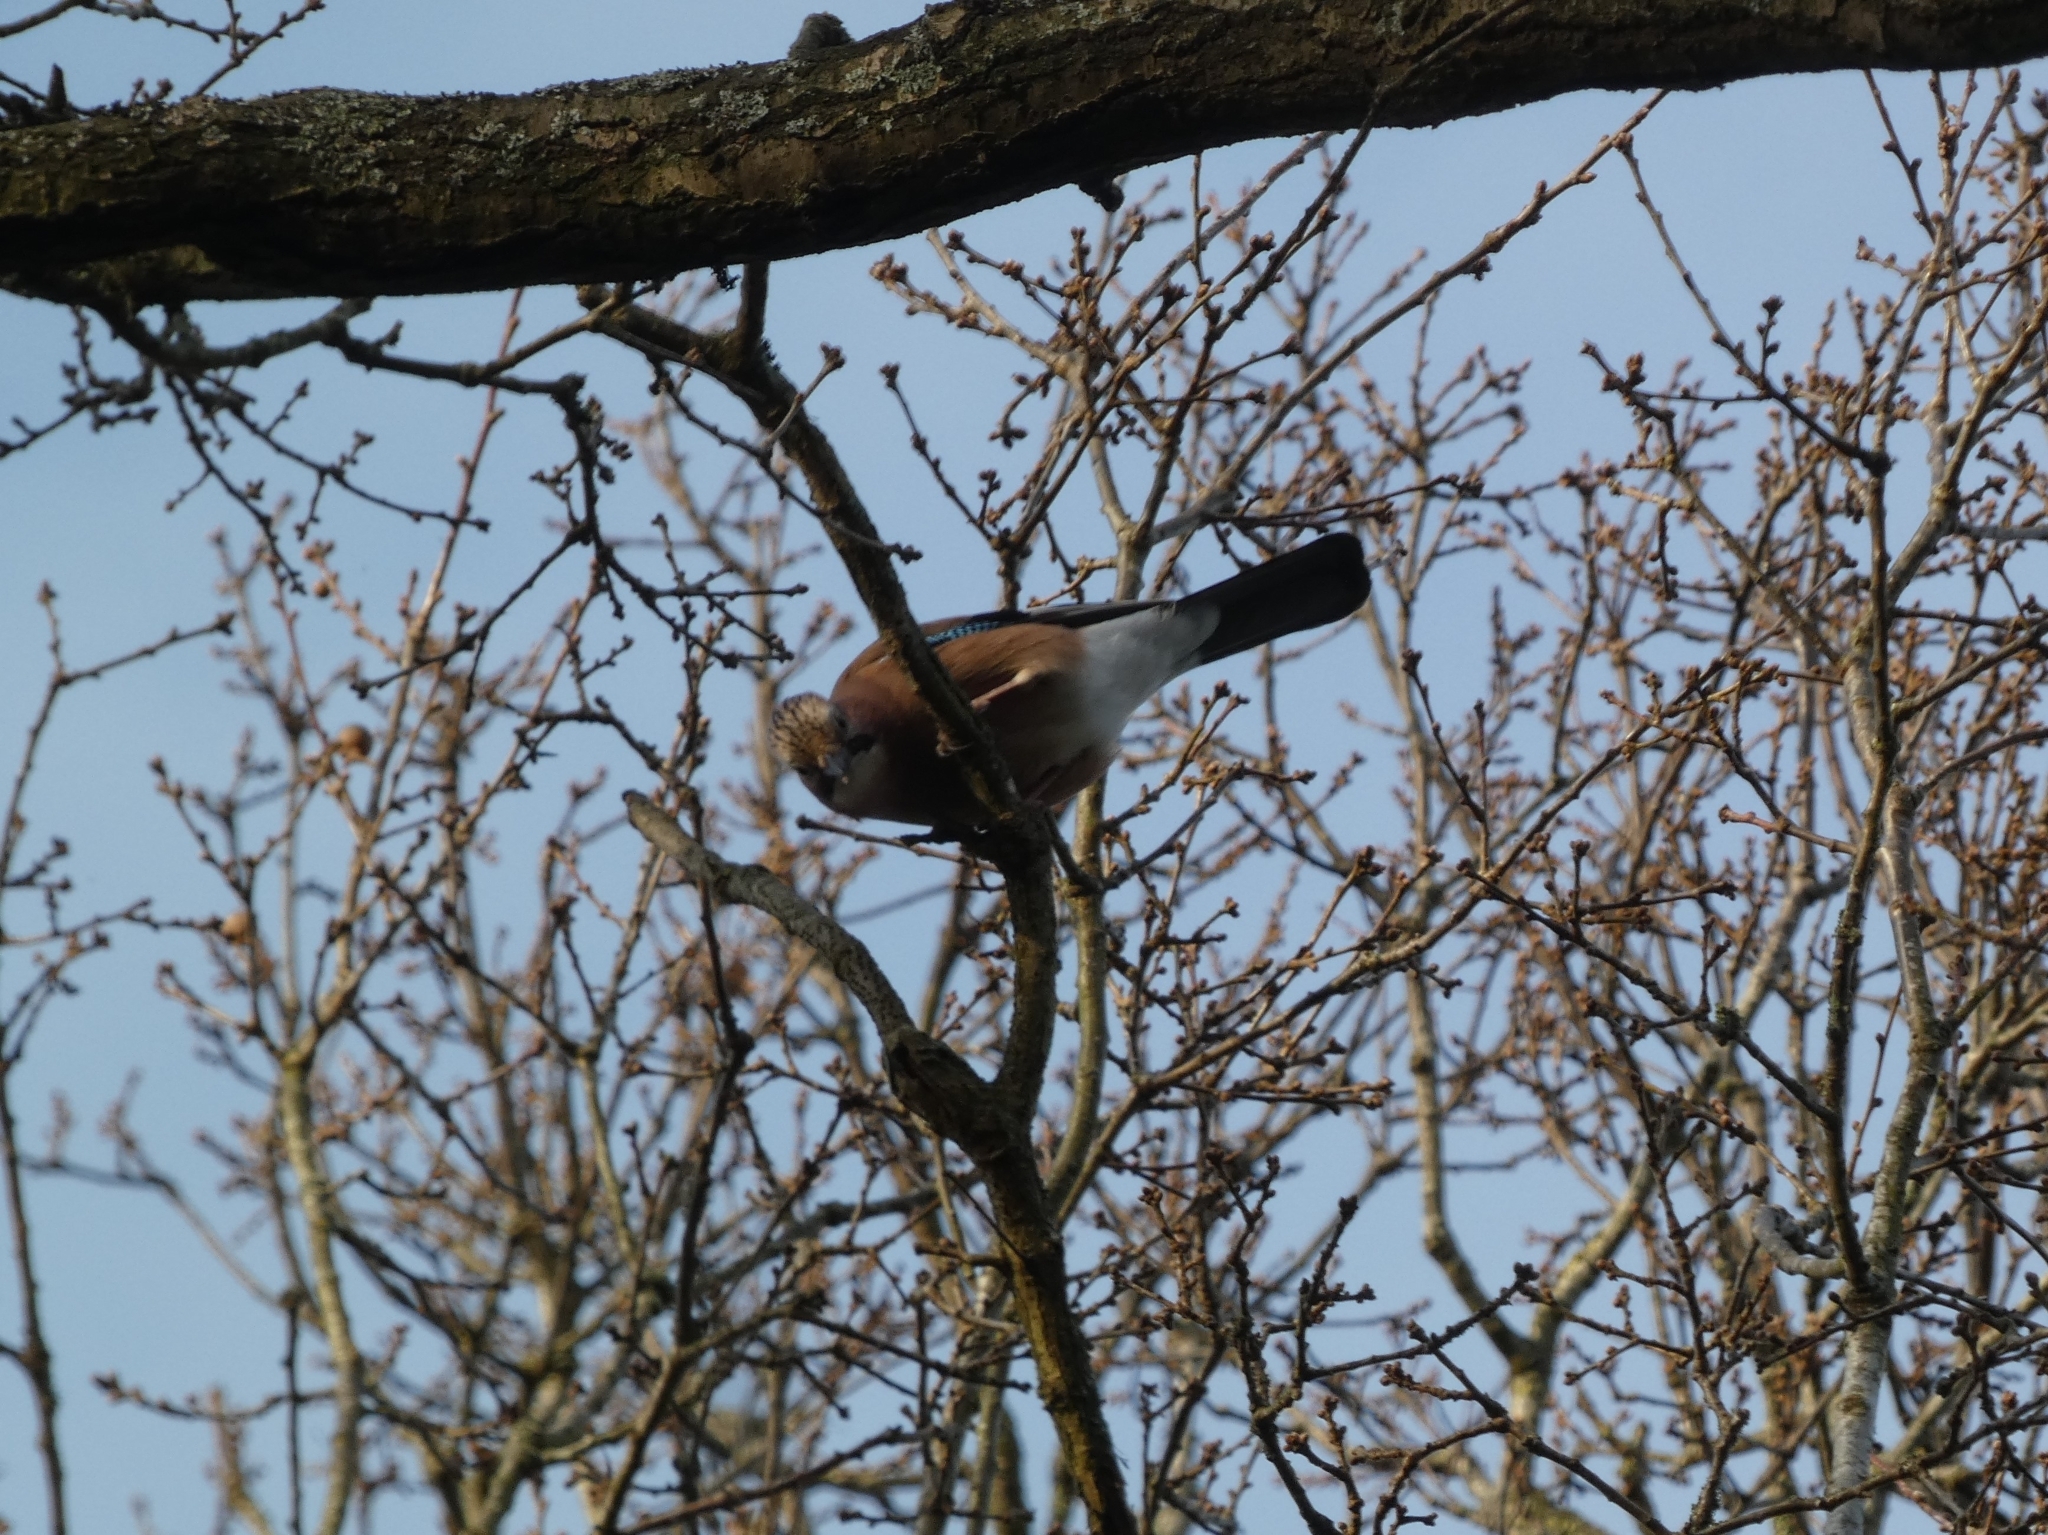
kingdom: Animalia
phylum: Chordata
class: Aves
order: Passeriformes
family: Corvidae
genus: Garrulus
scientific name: Garrulus glandarius
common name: Eurasian jay
